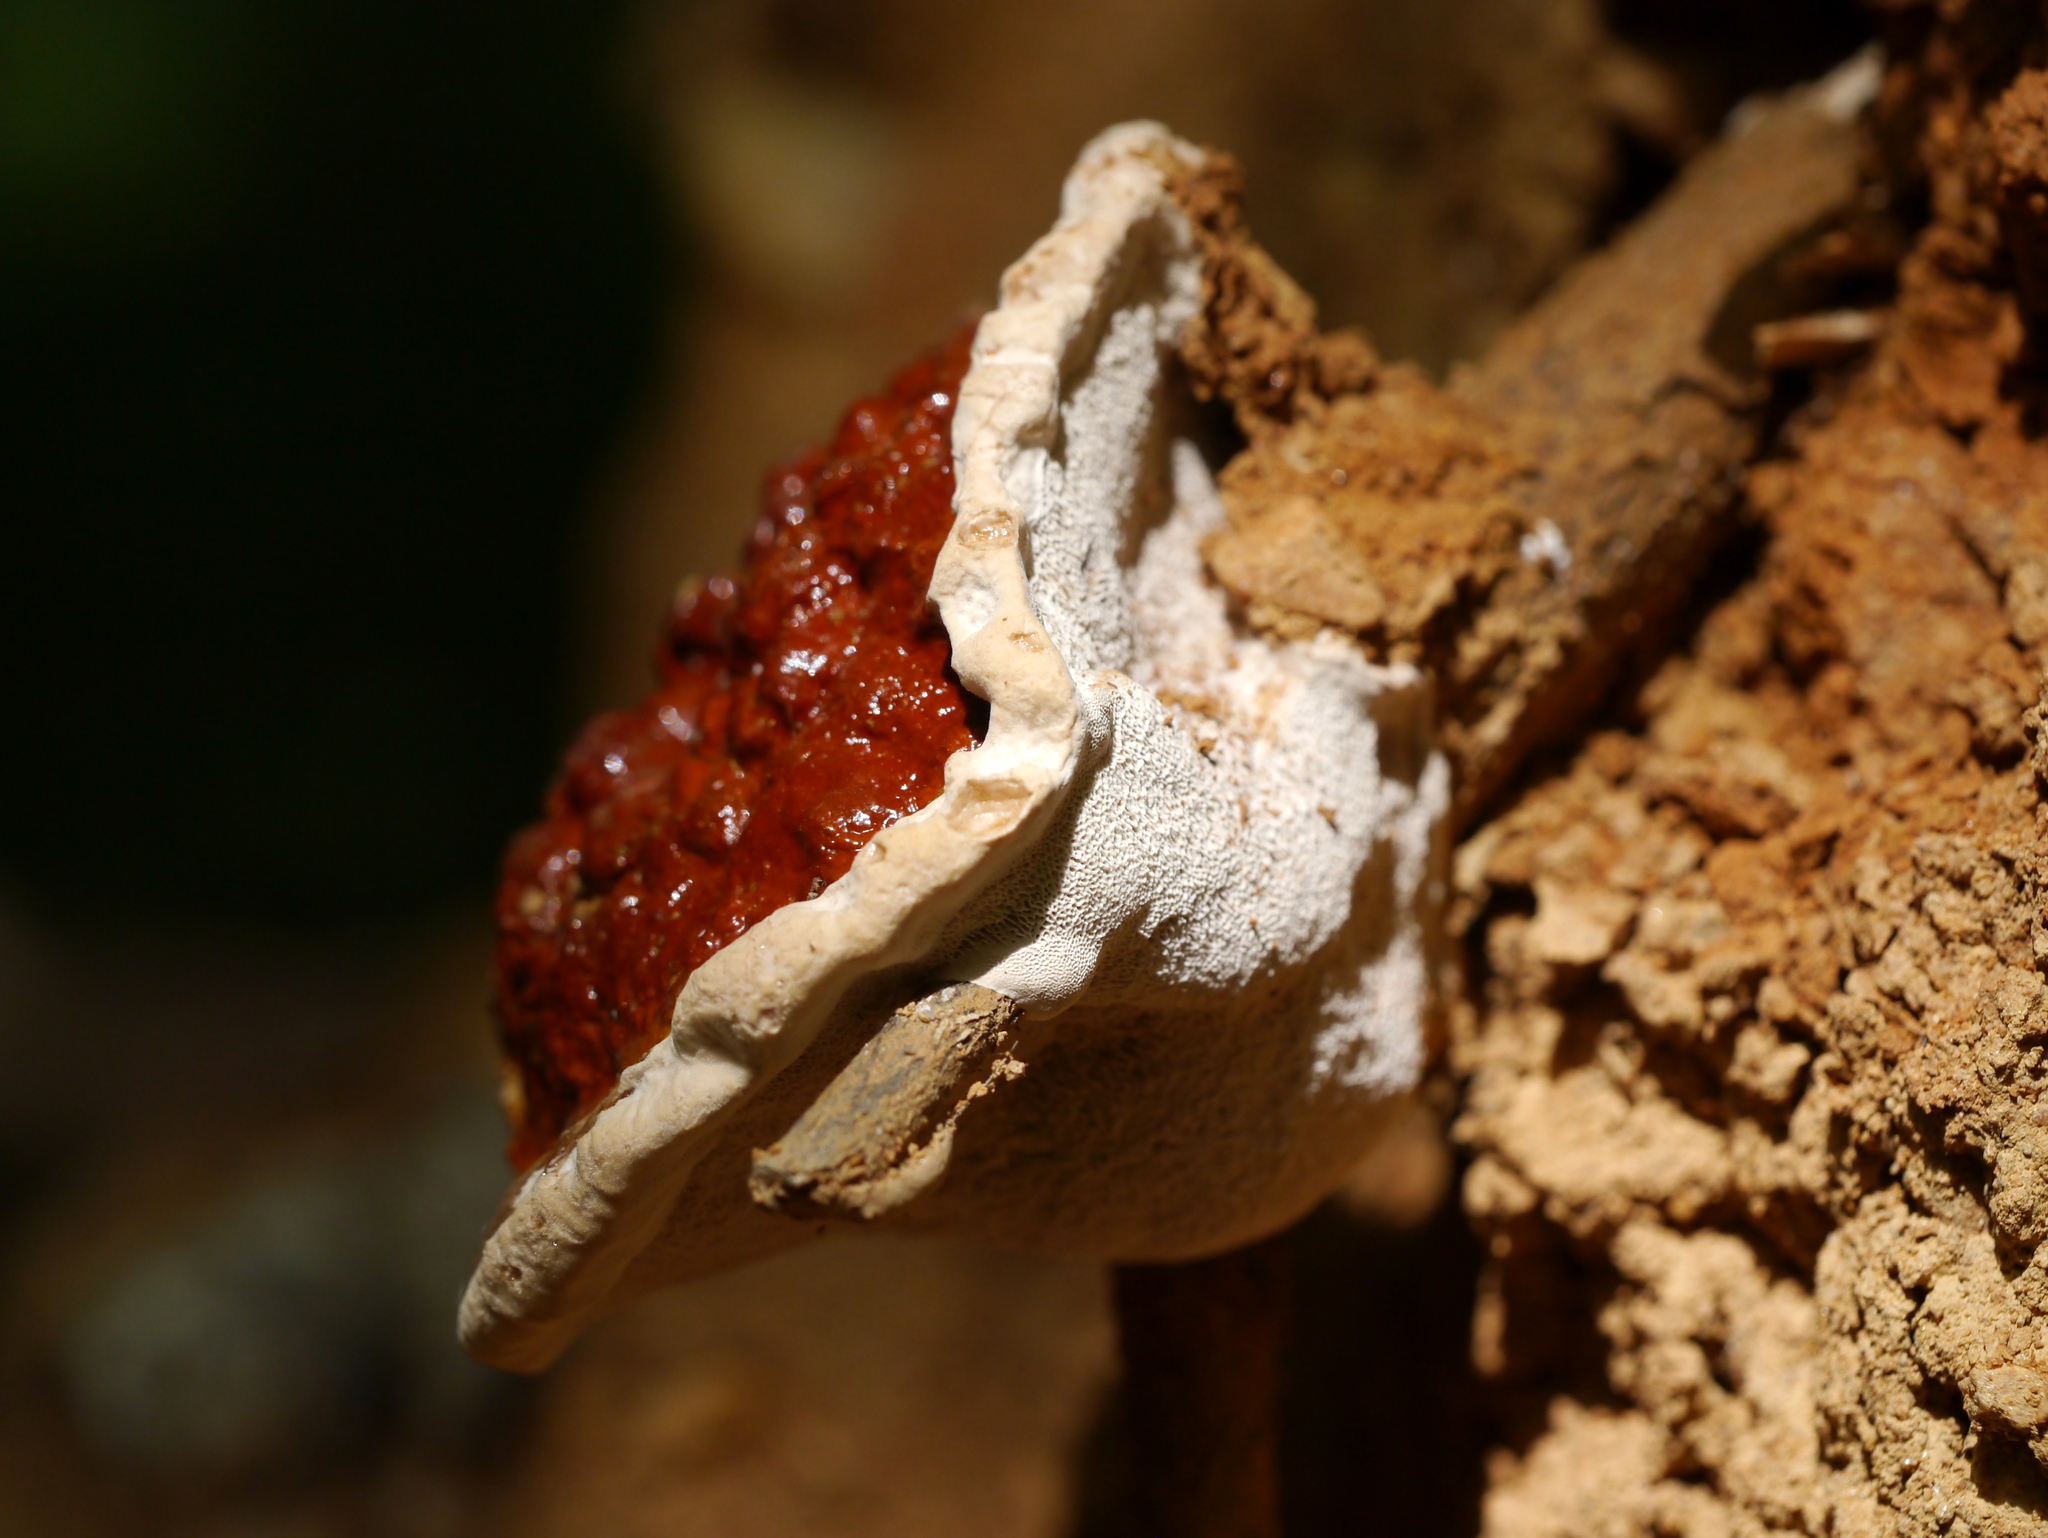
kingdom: Fungi
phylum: Basidiomycota
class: Agaricomycetes
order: Polyporales
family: Polyporaceae
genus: Ganoderma
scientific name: Ganoderma resinaceum
